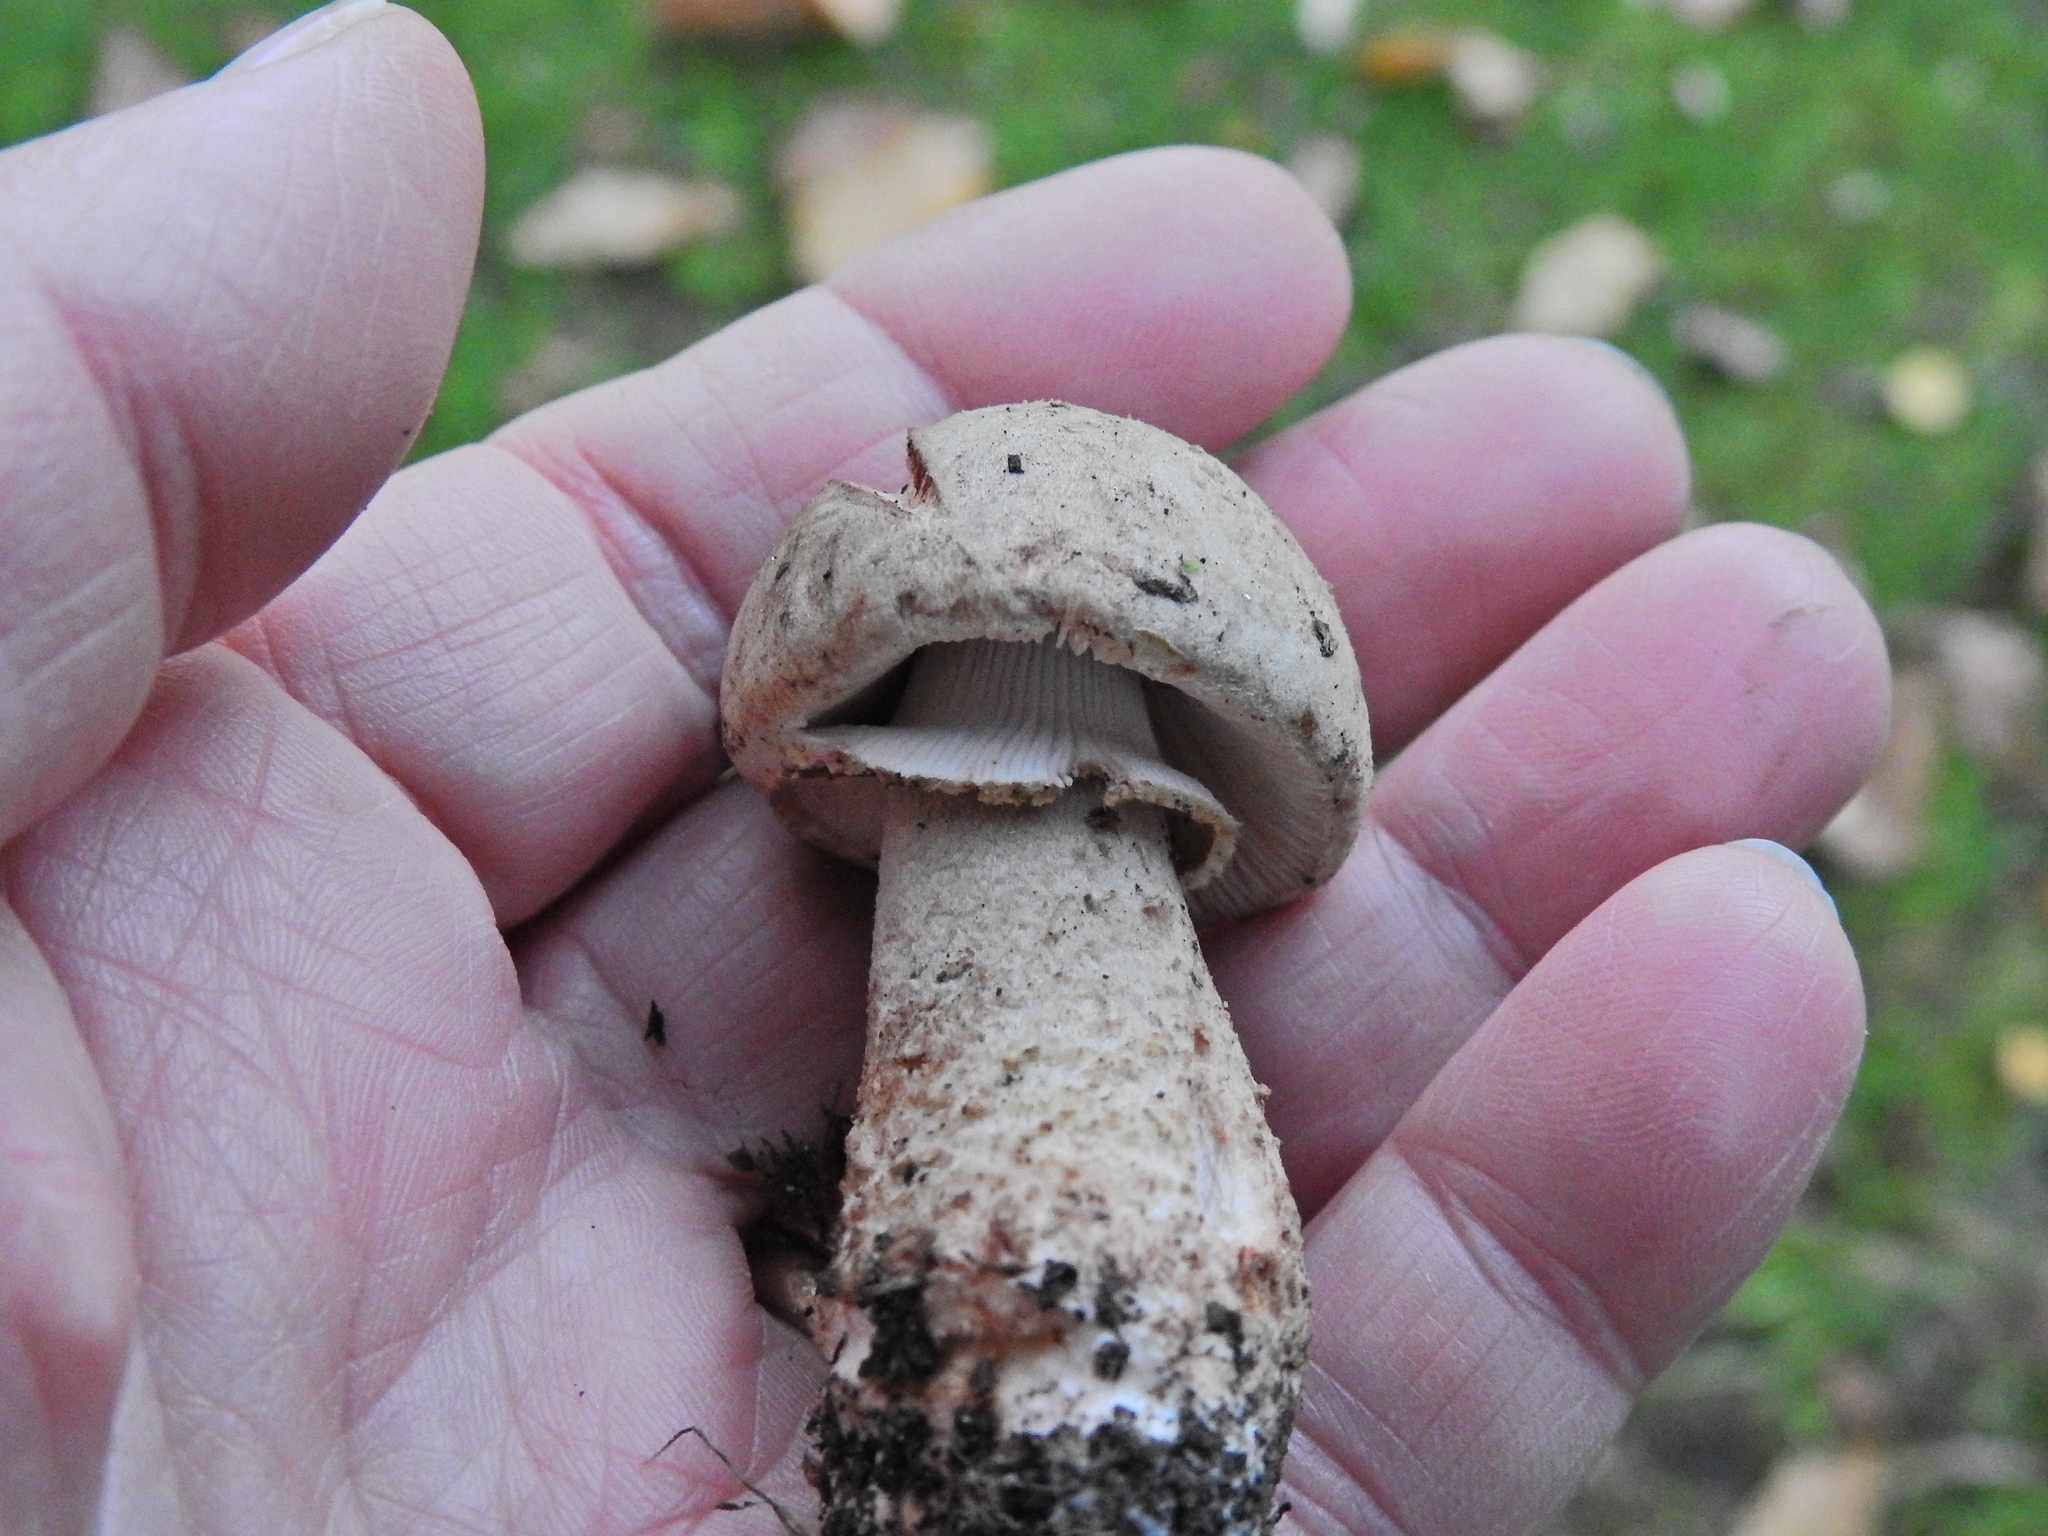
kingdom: Fungi
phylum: Basidiomycota
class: Agaricomycetes
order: Agaricales
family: Amanitaceae
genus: Amanita
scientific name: Amanita rubescens
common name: Blusher
